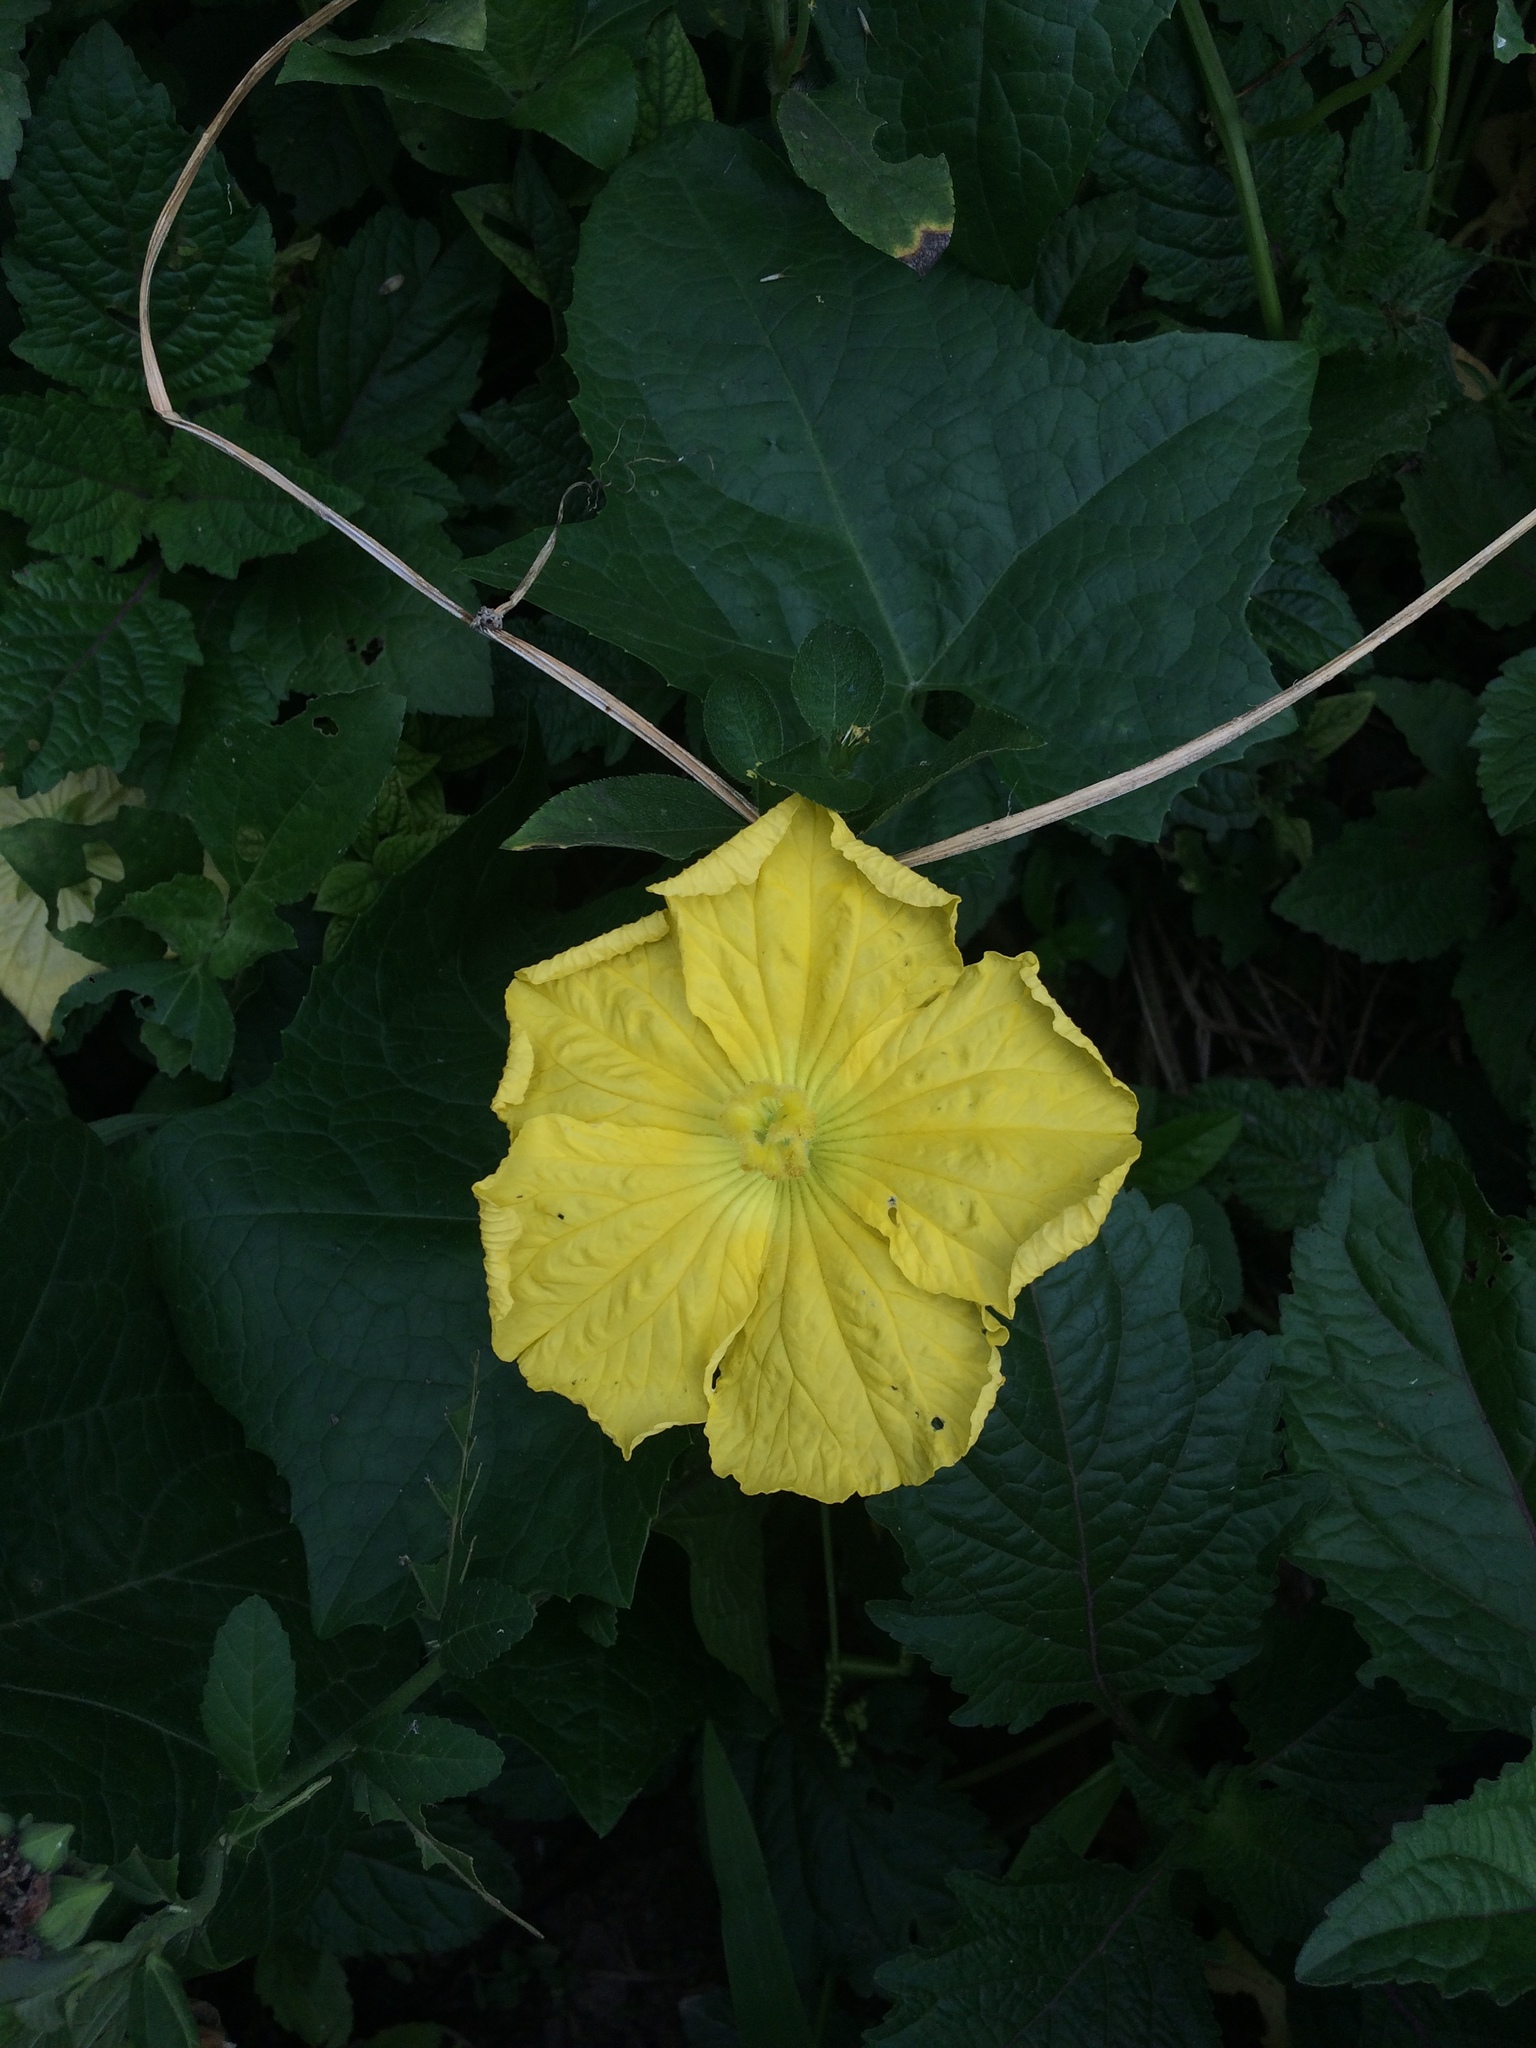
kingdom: Plantae
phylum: Tracheophyta
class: Magnoliopsida
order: Cucurbitales
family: Cucurbitaceae
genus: Luffa
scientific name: Luffa aegyptiaca
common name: Sponge gourd
